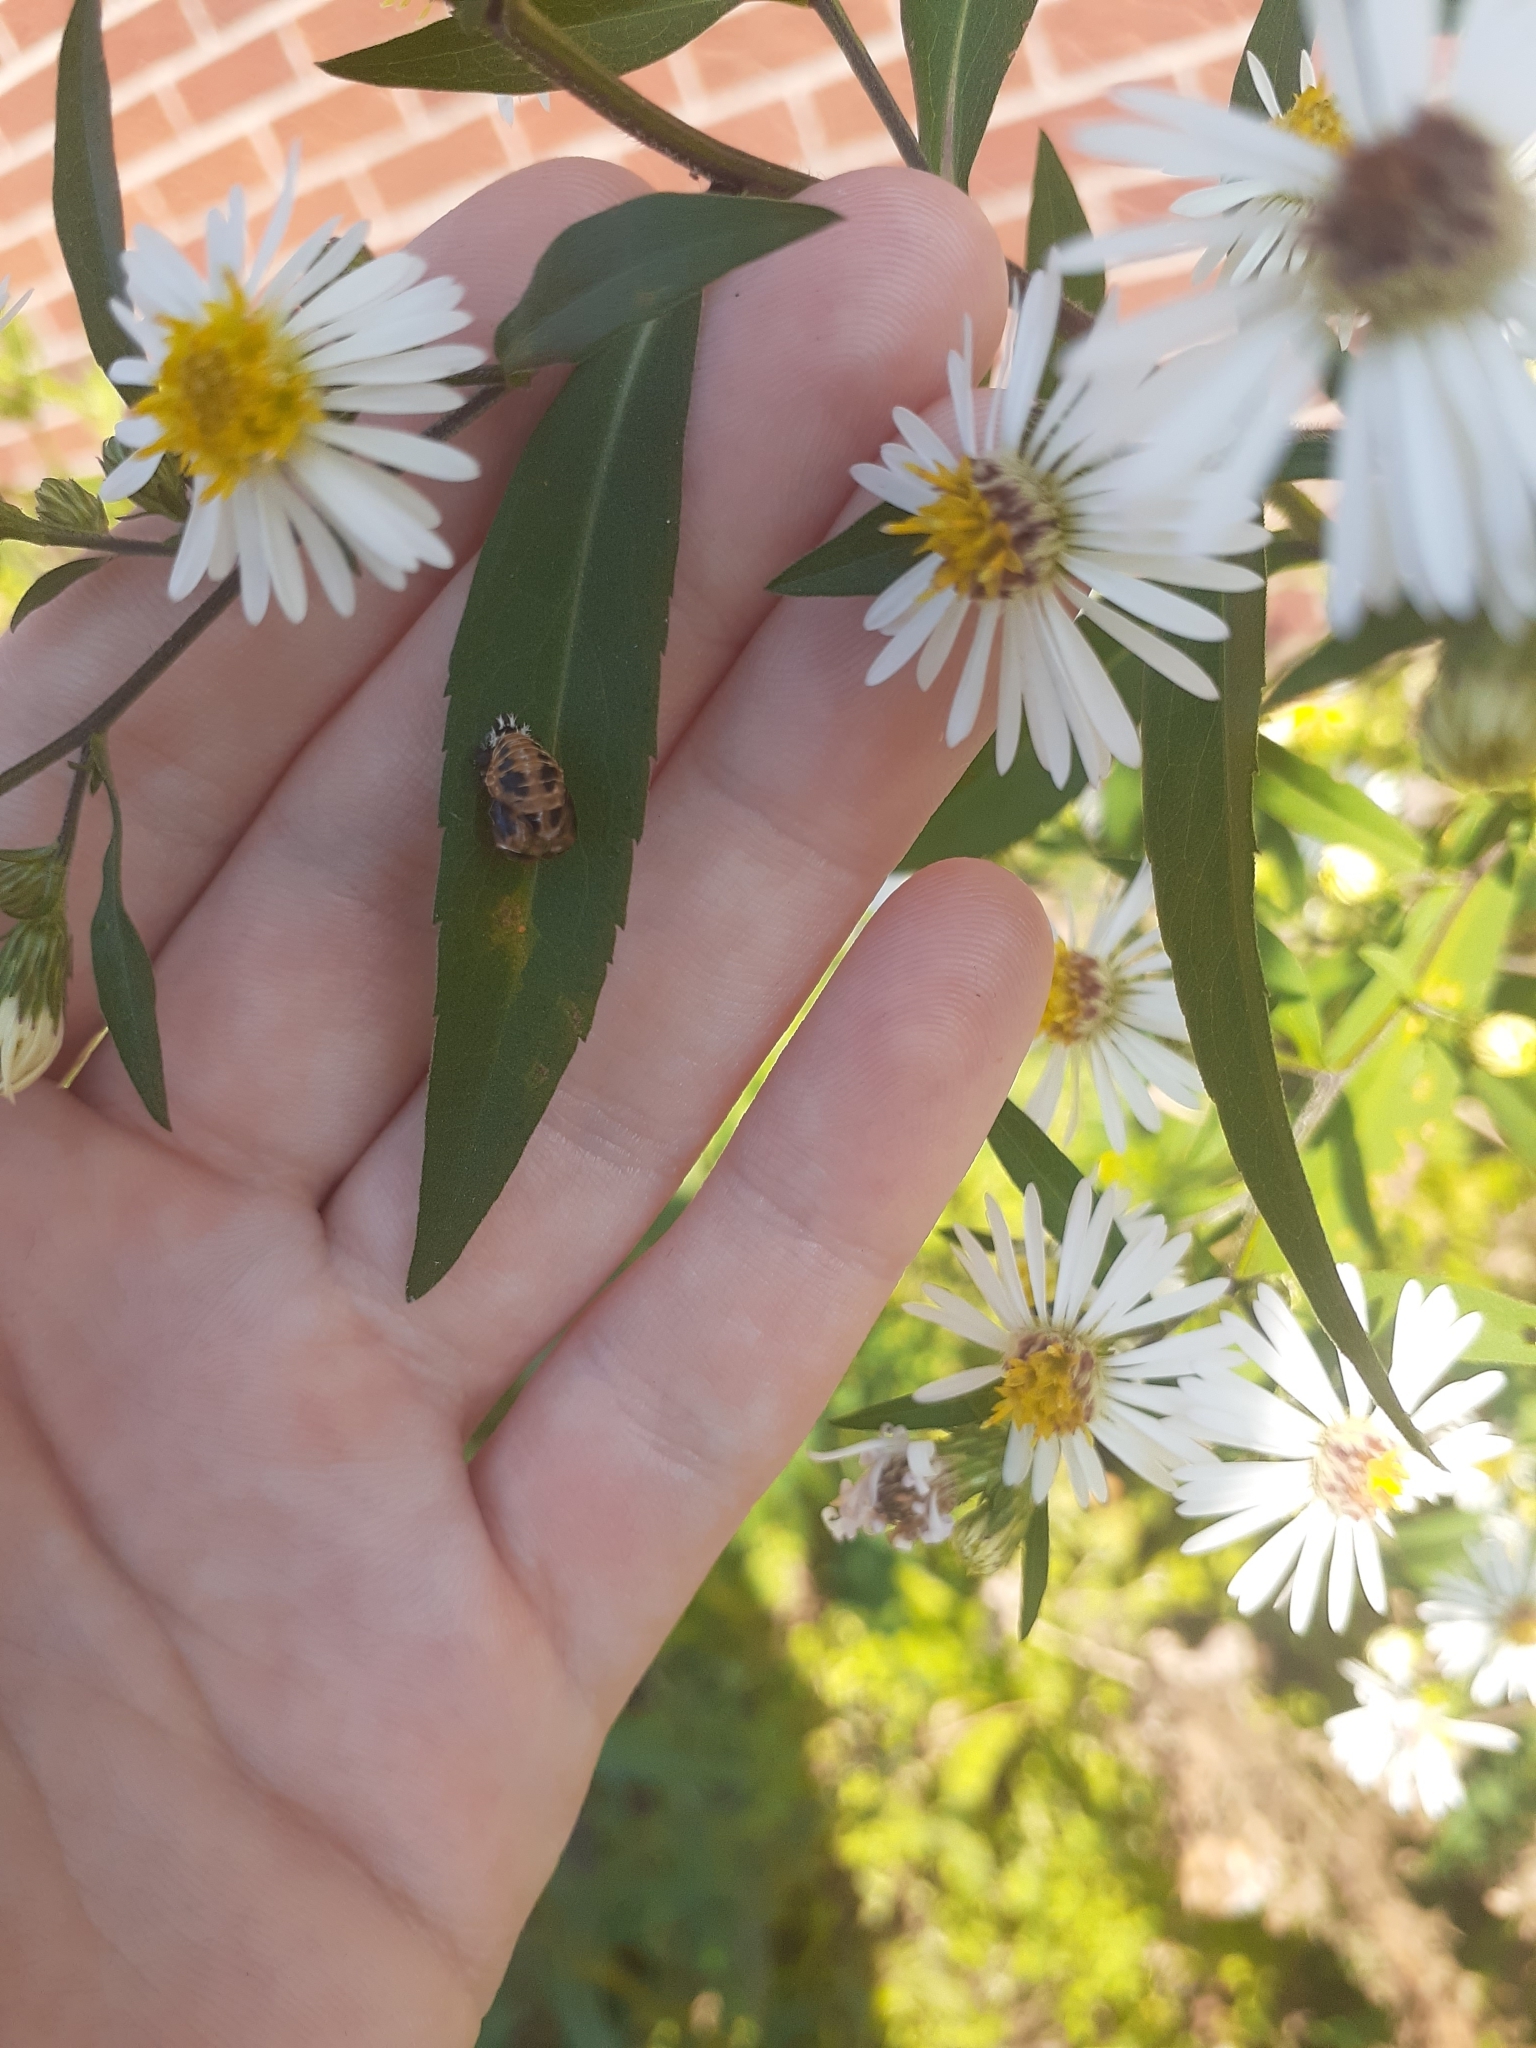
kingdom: Animalia
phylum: Arthropoda
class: Insecta
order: Coleoptera
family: Coccinellidae
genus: Harmonia
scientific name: Harmonia axyridis
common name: Harlequin ladybird
